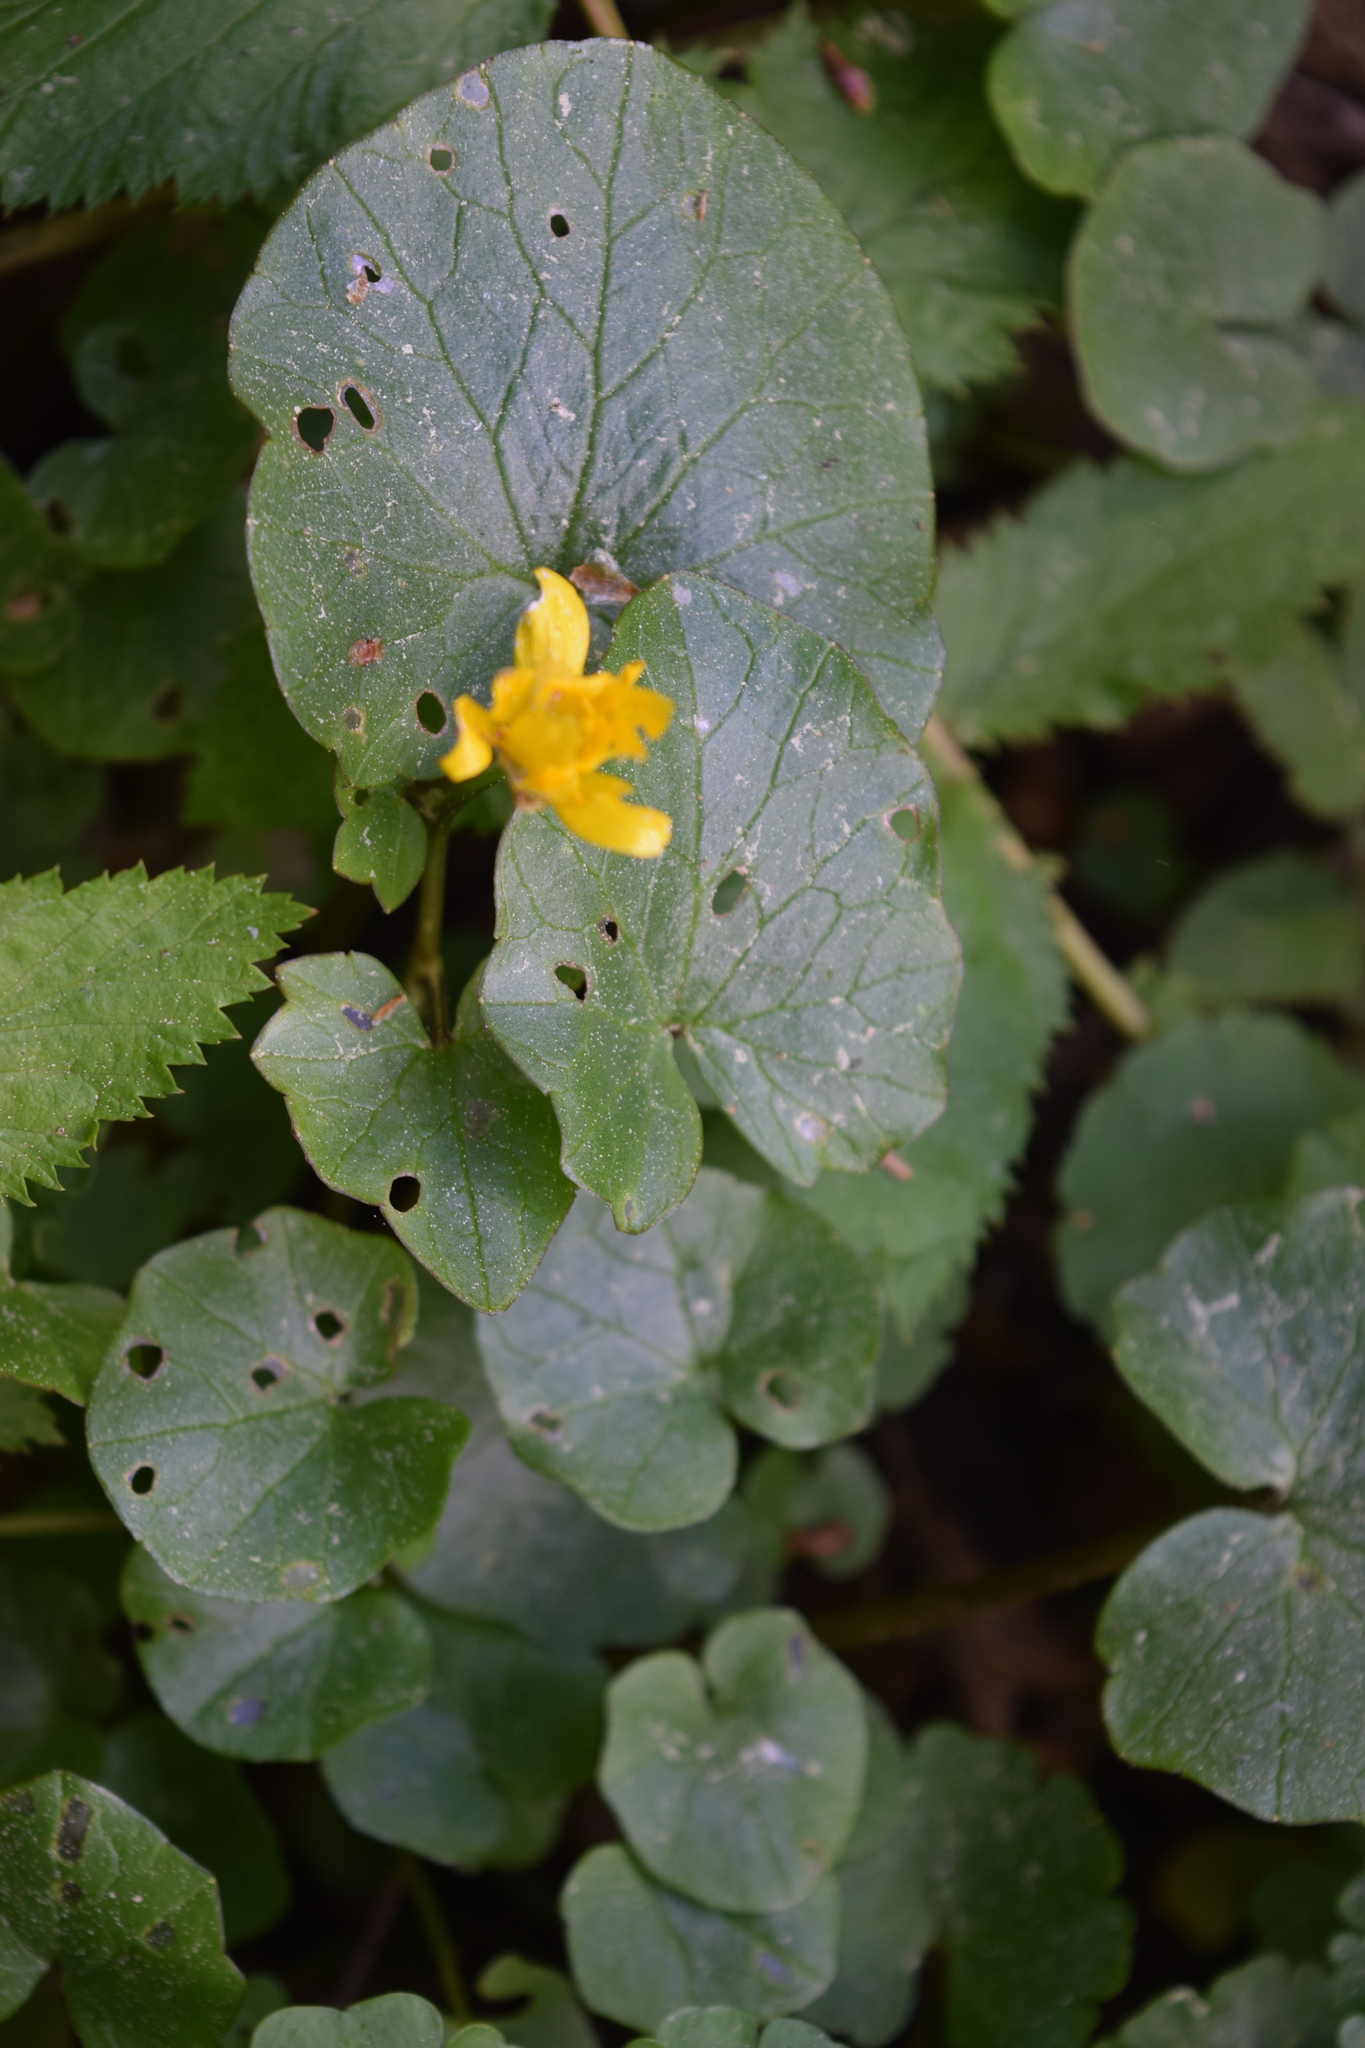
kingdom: Plantae
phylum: Tracheophyta
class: Magnoliopsida
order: Ranunculales
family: Ranunculaceae
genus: Ficaria
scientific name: Ficaria verna
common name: Lesser celandine
